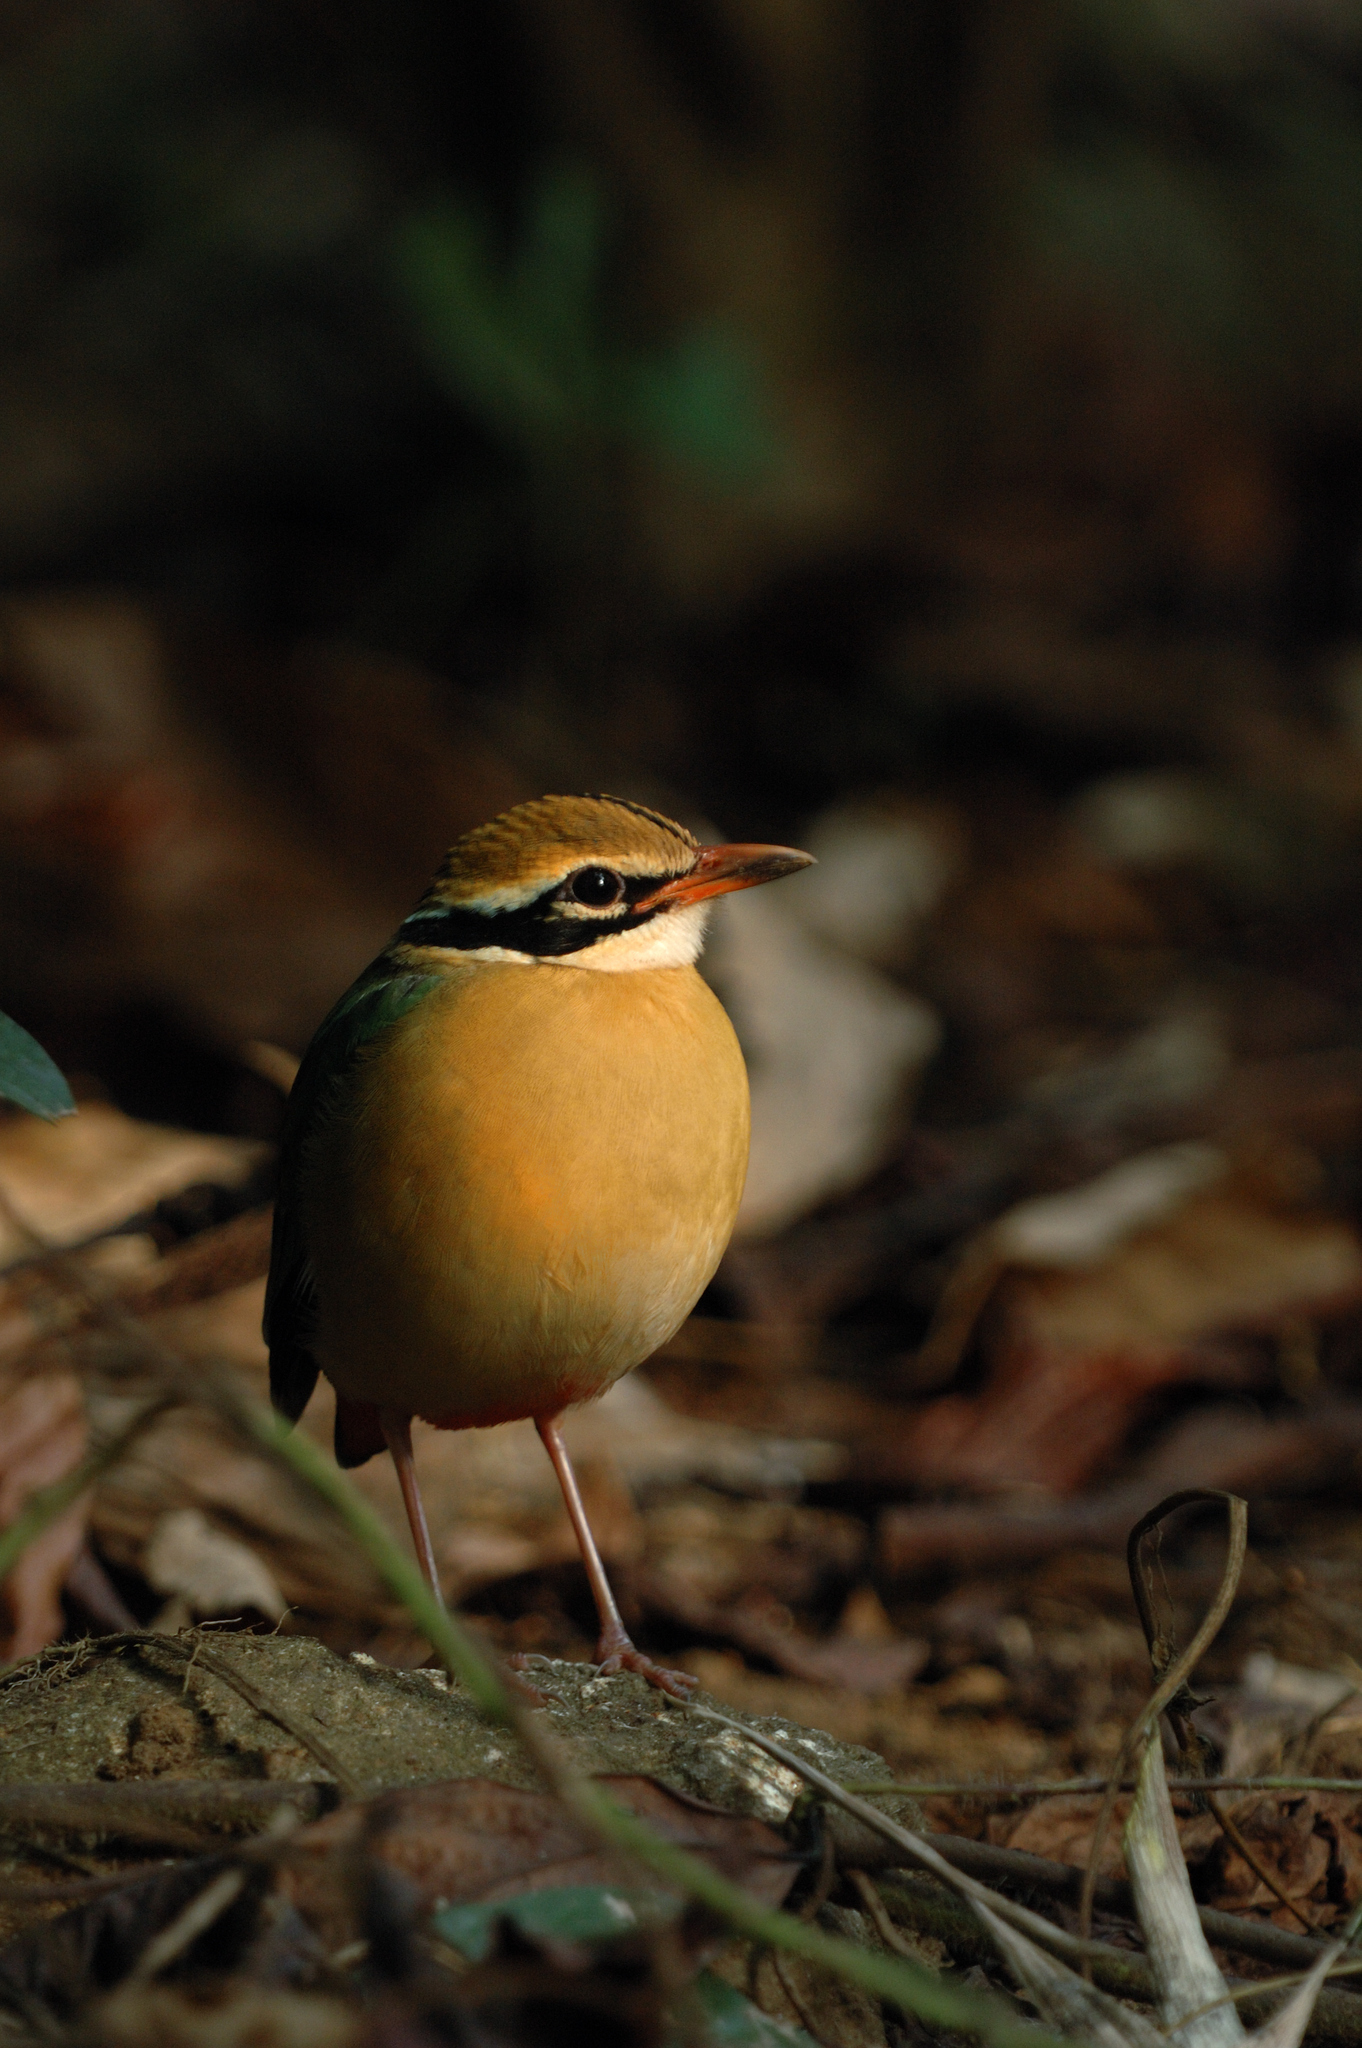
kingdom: Animalia
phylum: Chordata
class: Aves
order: Passeriformes
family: Pittidae
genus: Pitta
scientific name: Pitta brachyura
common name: Indian pitta
